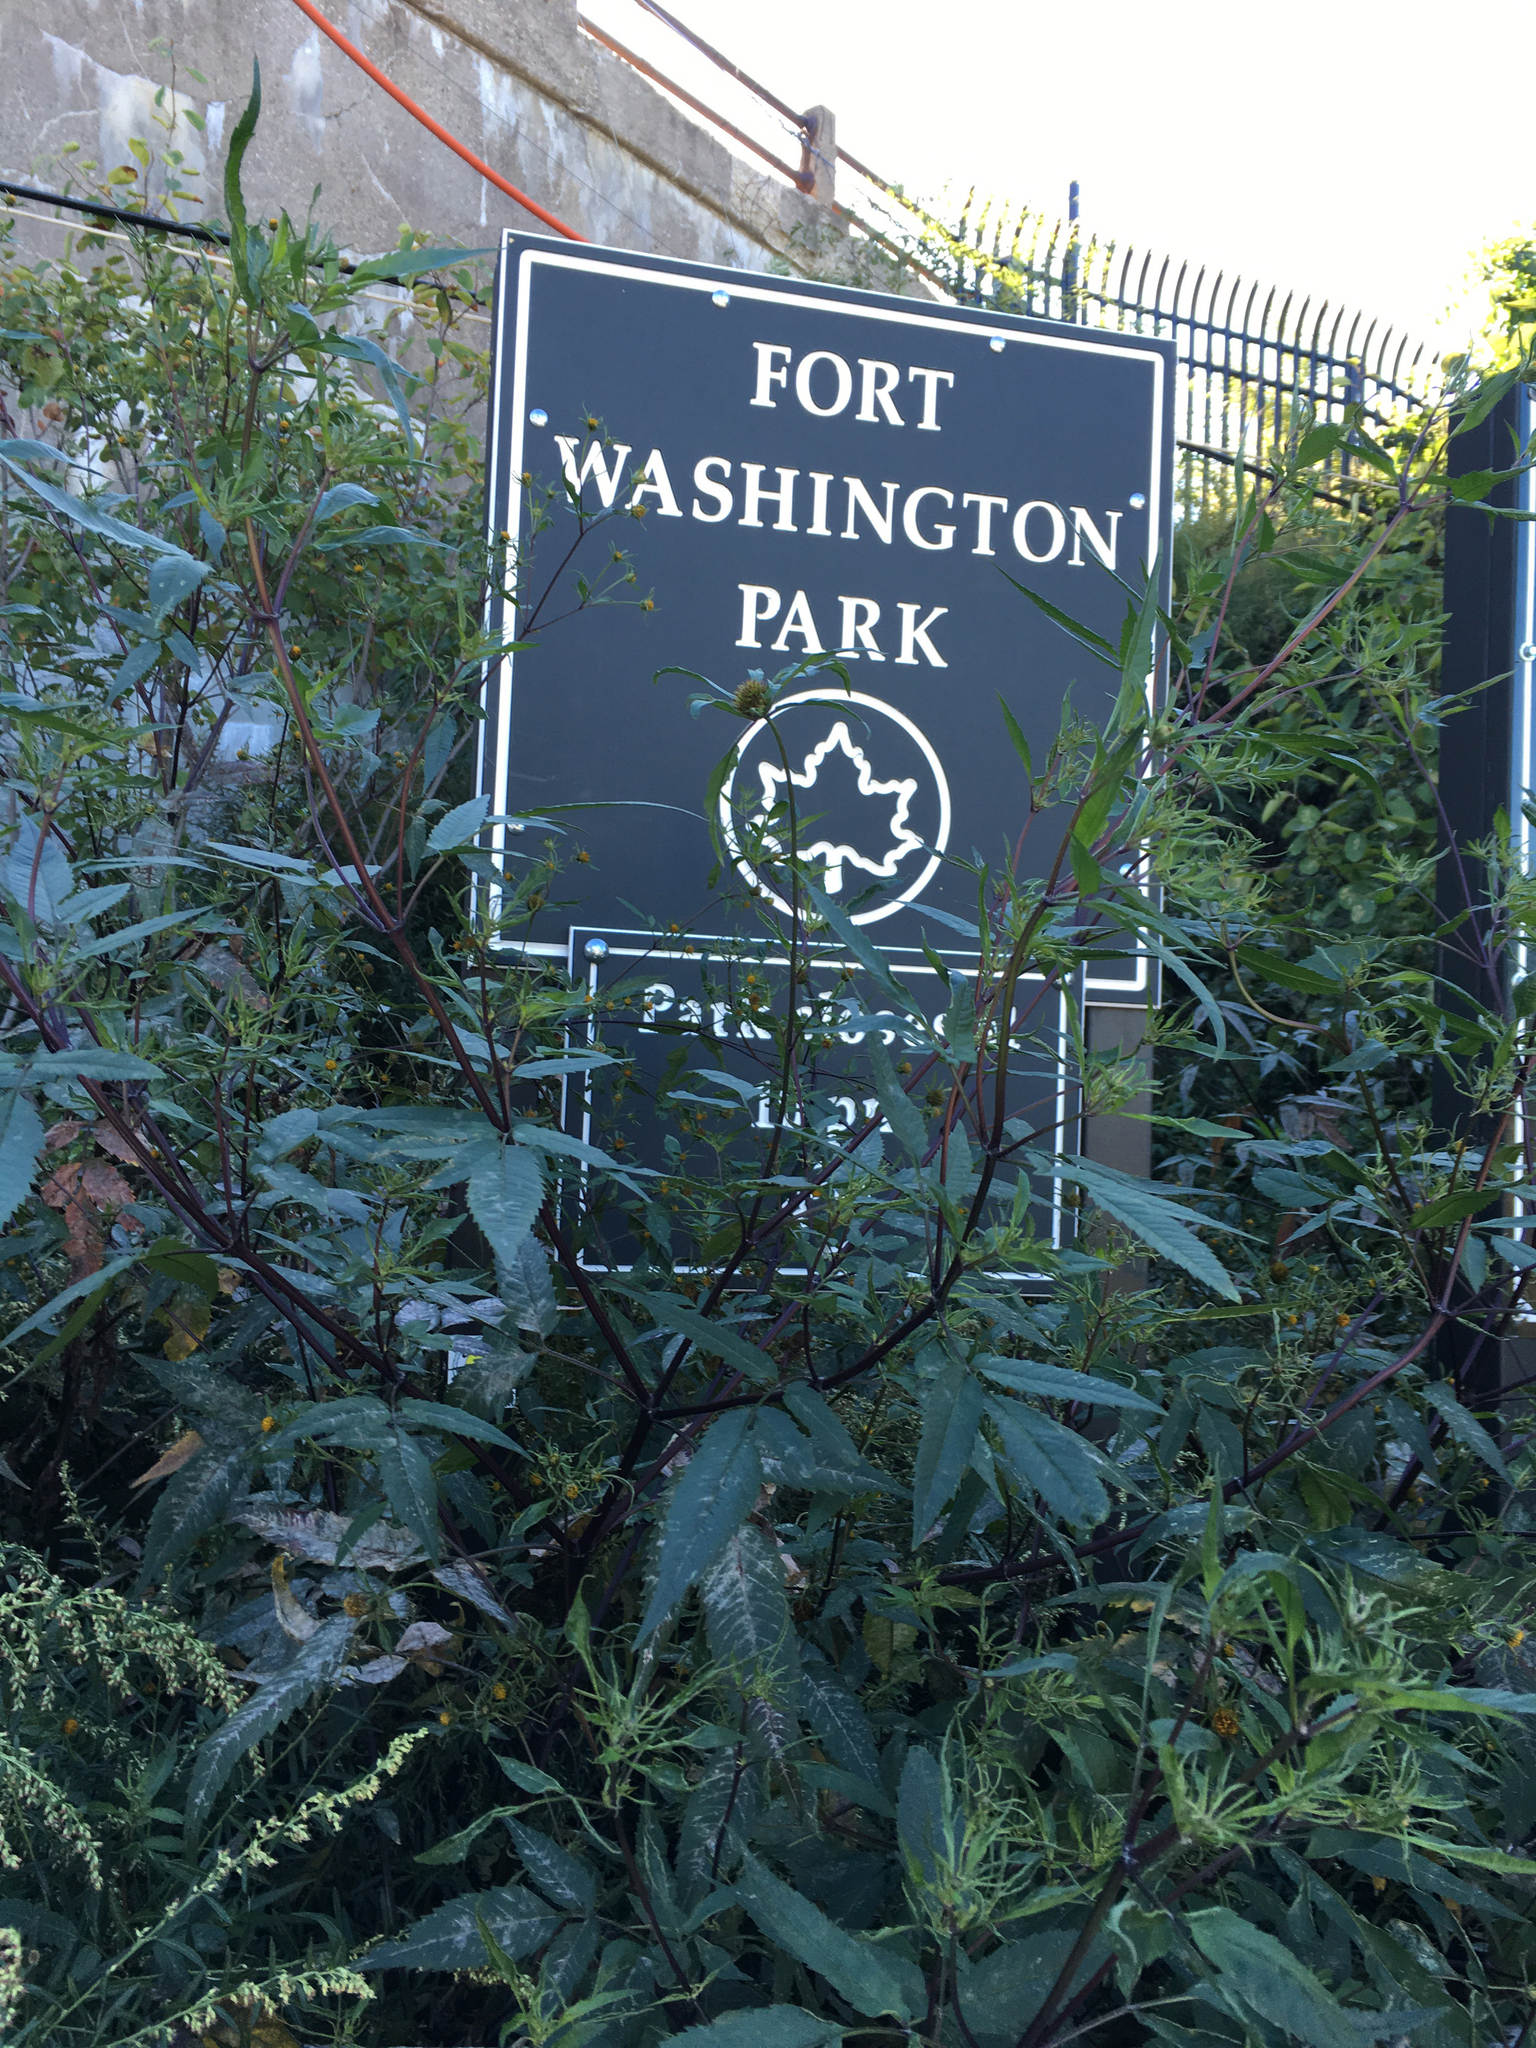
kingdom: Plantae
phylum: Tracheophyta
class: Magnoliopsida
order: Asterales
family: Asteraceae
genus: Bidens
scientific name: Bidens frondosa
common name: Beggarticks
